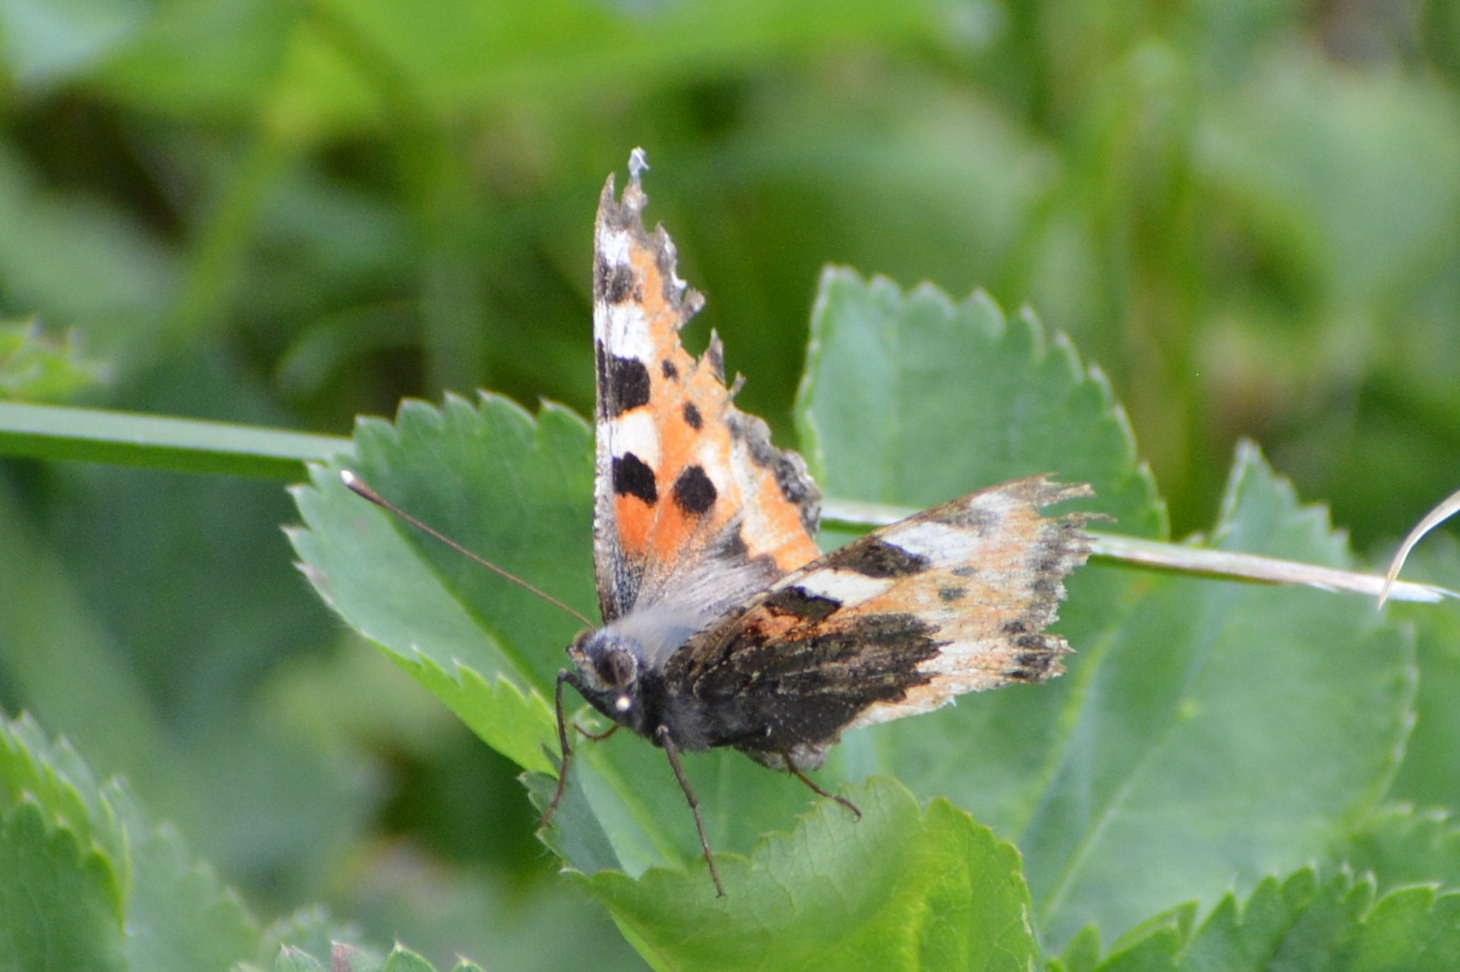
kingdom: Animalia
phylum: Arthropoda
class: Insecta
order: Lepidoptera
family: Nymphalidae
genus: Aglais
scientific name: Aglais urticae
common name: Small tortoiseshell
